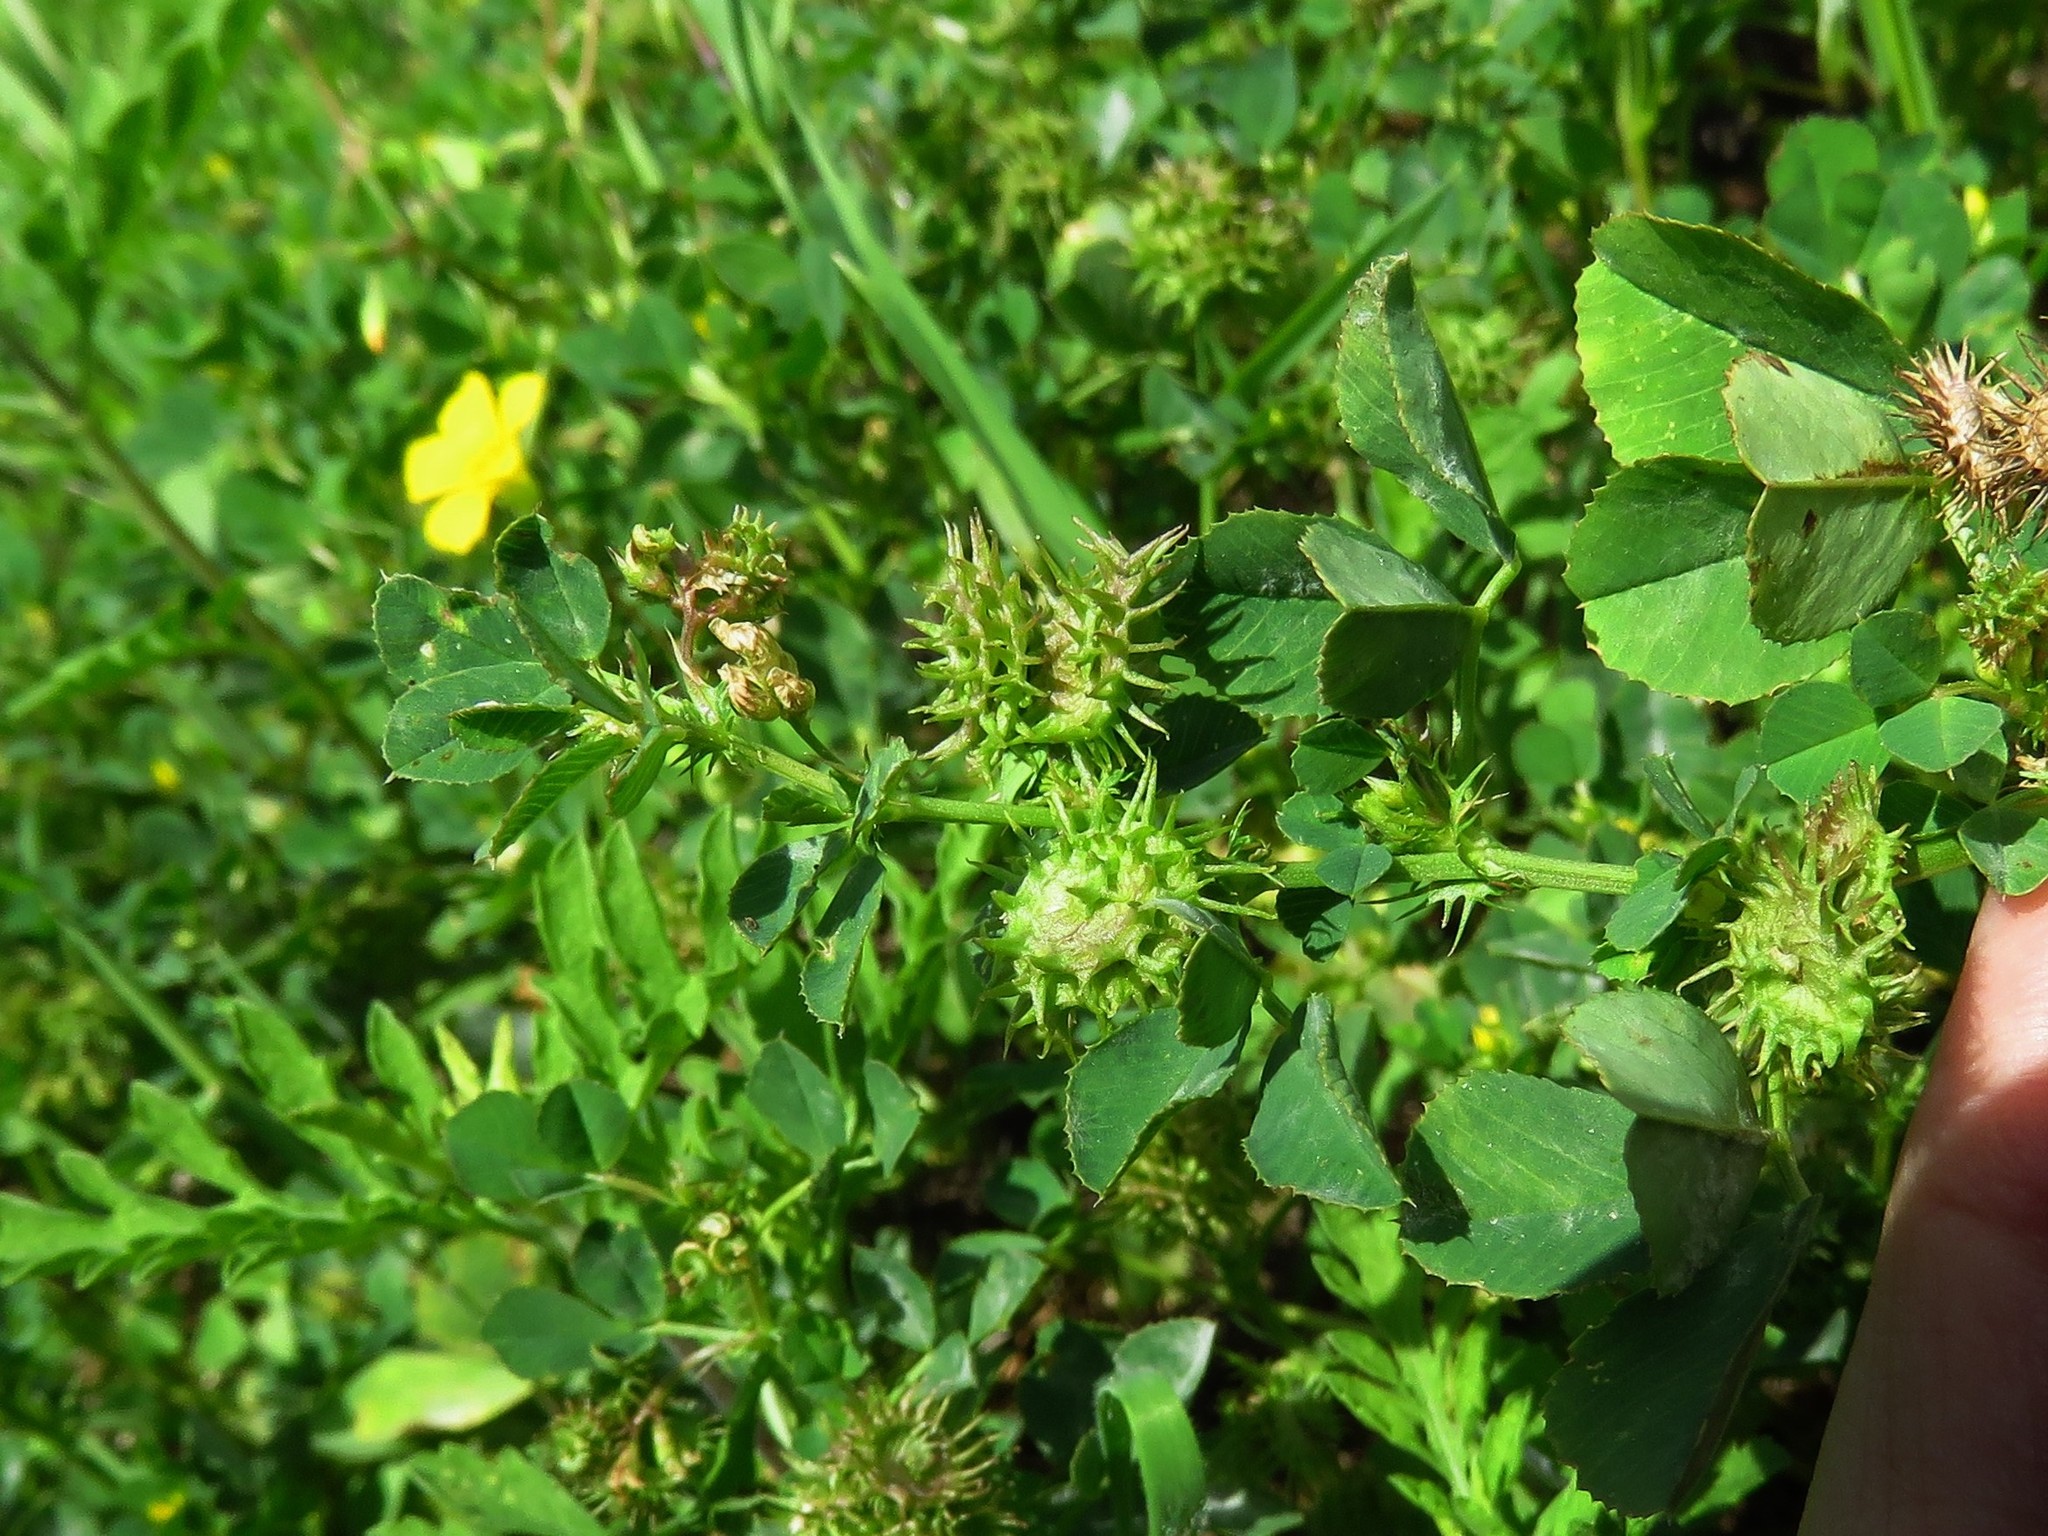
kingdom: Plantae
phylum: Tracheophyta
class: Magnoliopsida
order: Fabales
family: Fabaceae
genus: Medicago
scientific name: Medicago polymorpha
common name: Burclover
